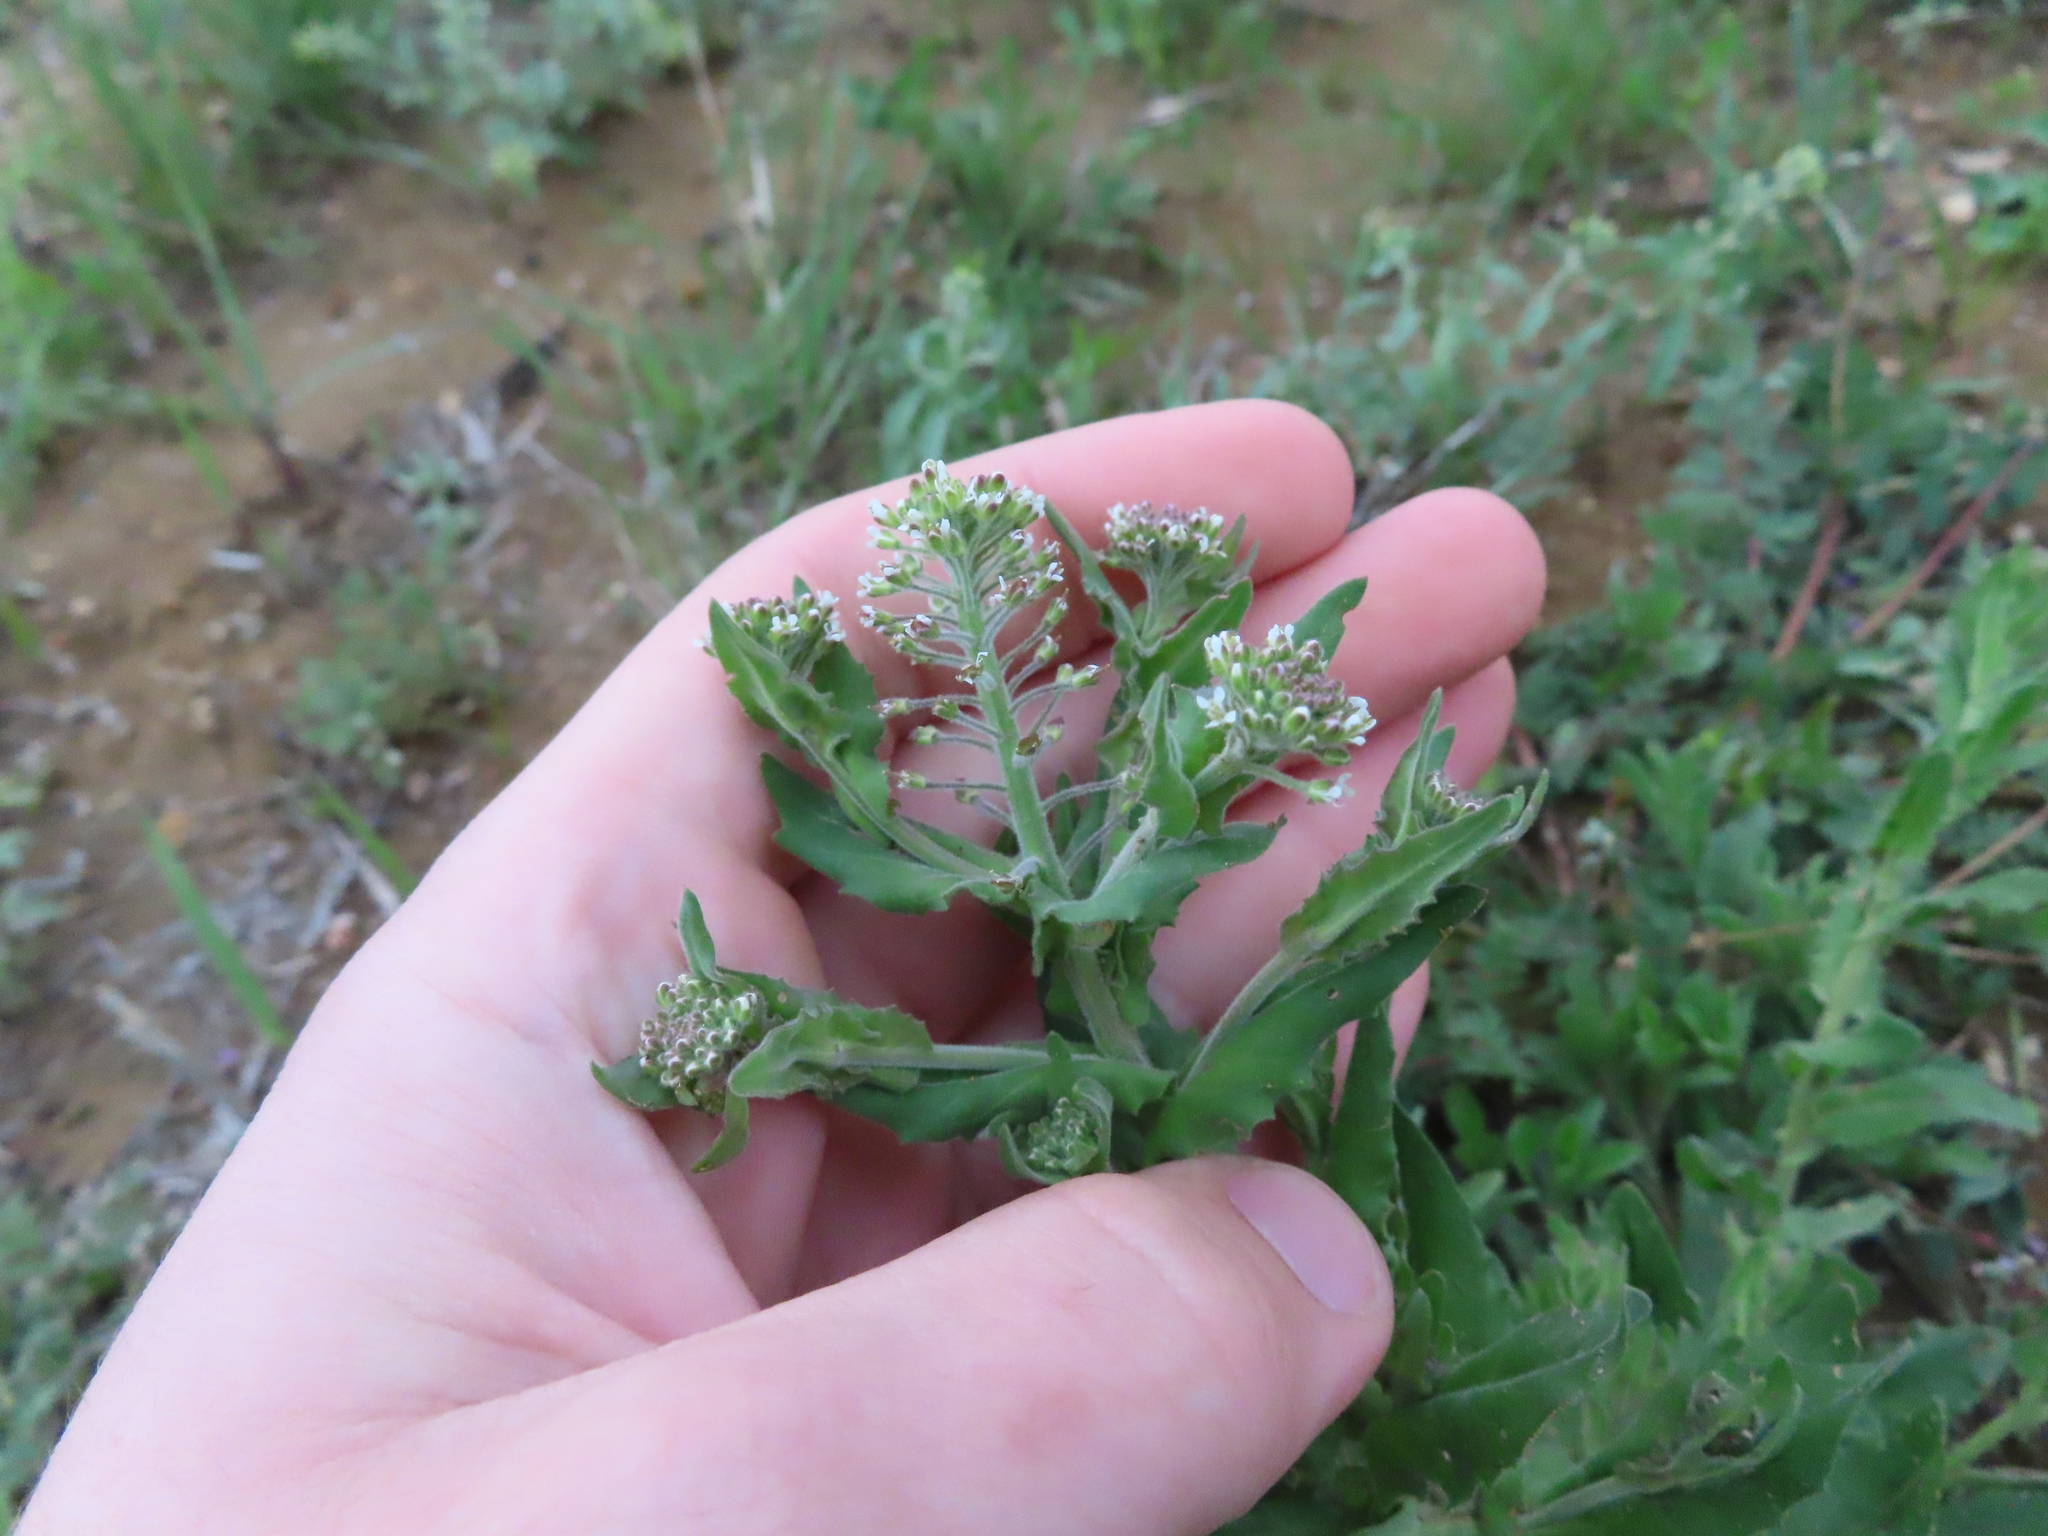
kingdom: Plantae
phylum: Tracheophyta
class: Magnoliopsida
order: Brassicales
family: Brassicaceae
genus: Lepidium
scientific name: Lepidium campestre
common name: Field pepperwort
